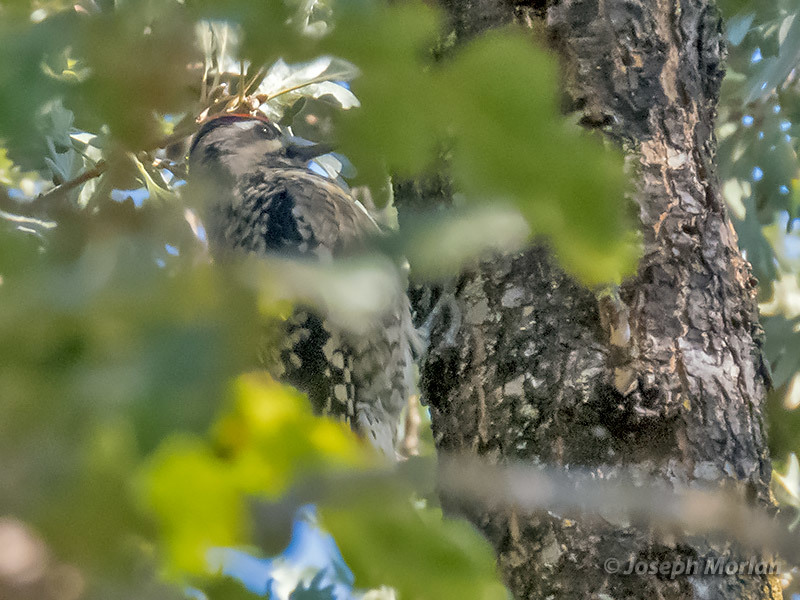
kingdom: Animalia
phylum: Chordata
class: Aves
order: Piciformes
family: Picidae
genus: Sphyrapicus
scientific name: Sphyrapicus varius
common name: Yellow-bellied sapsucker
